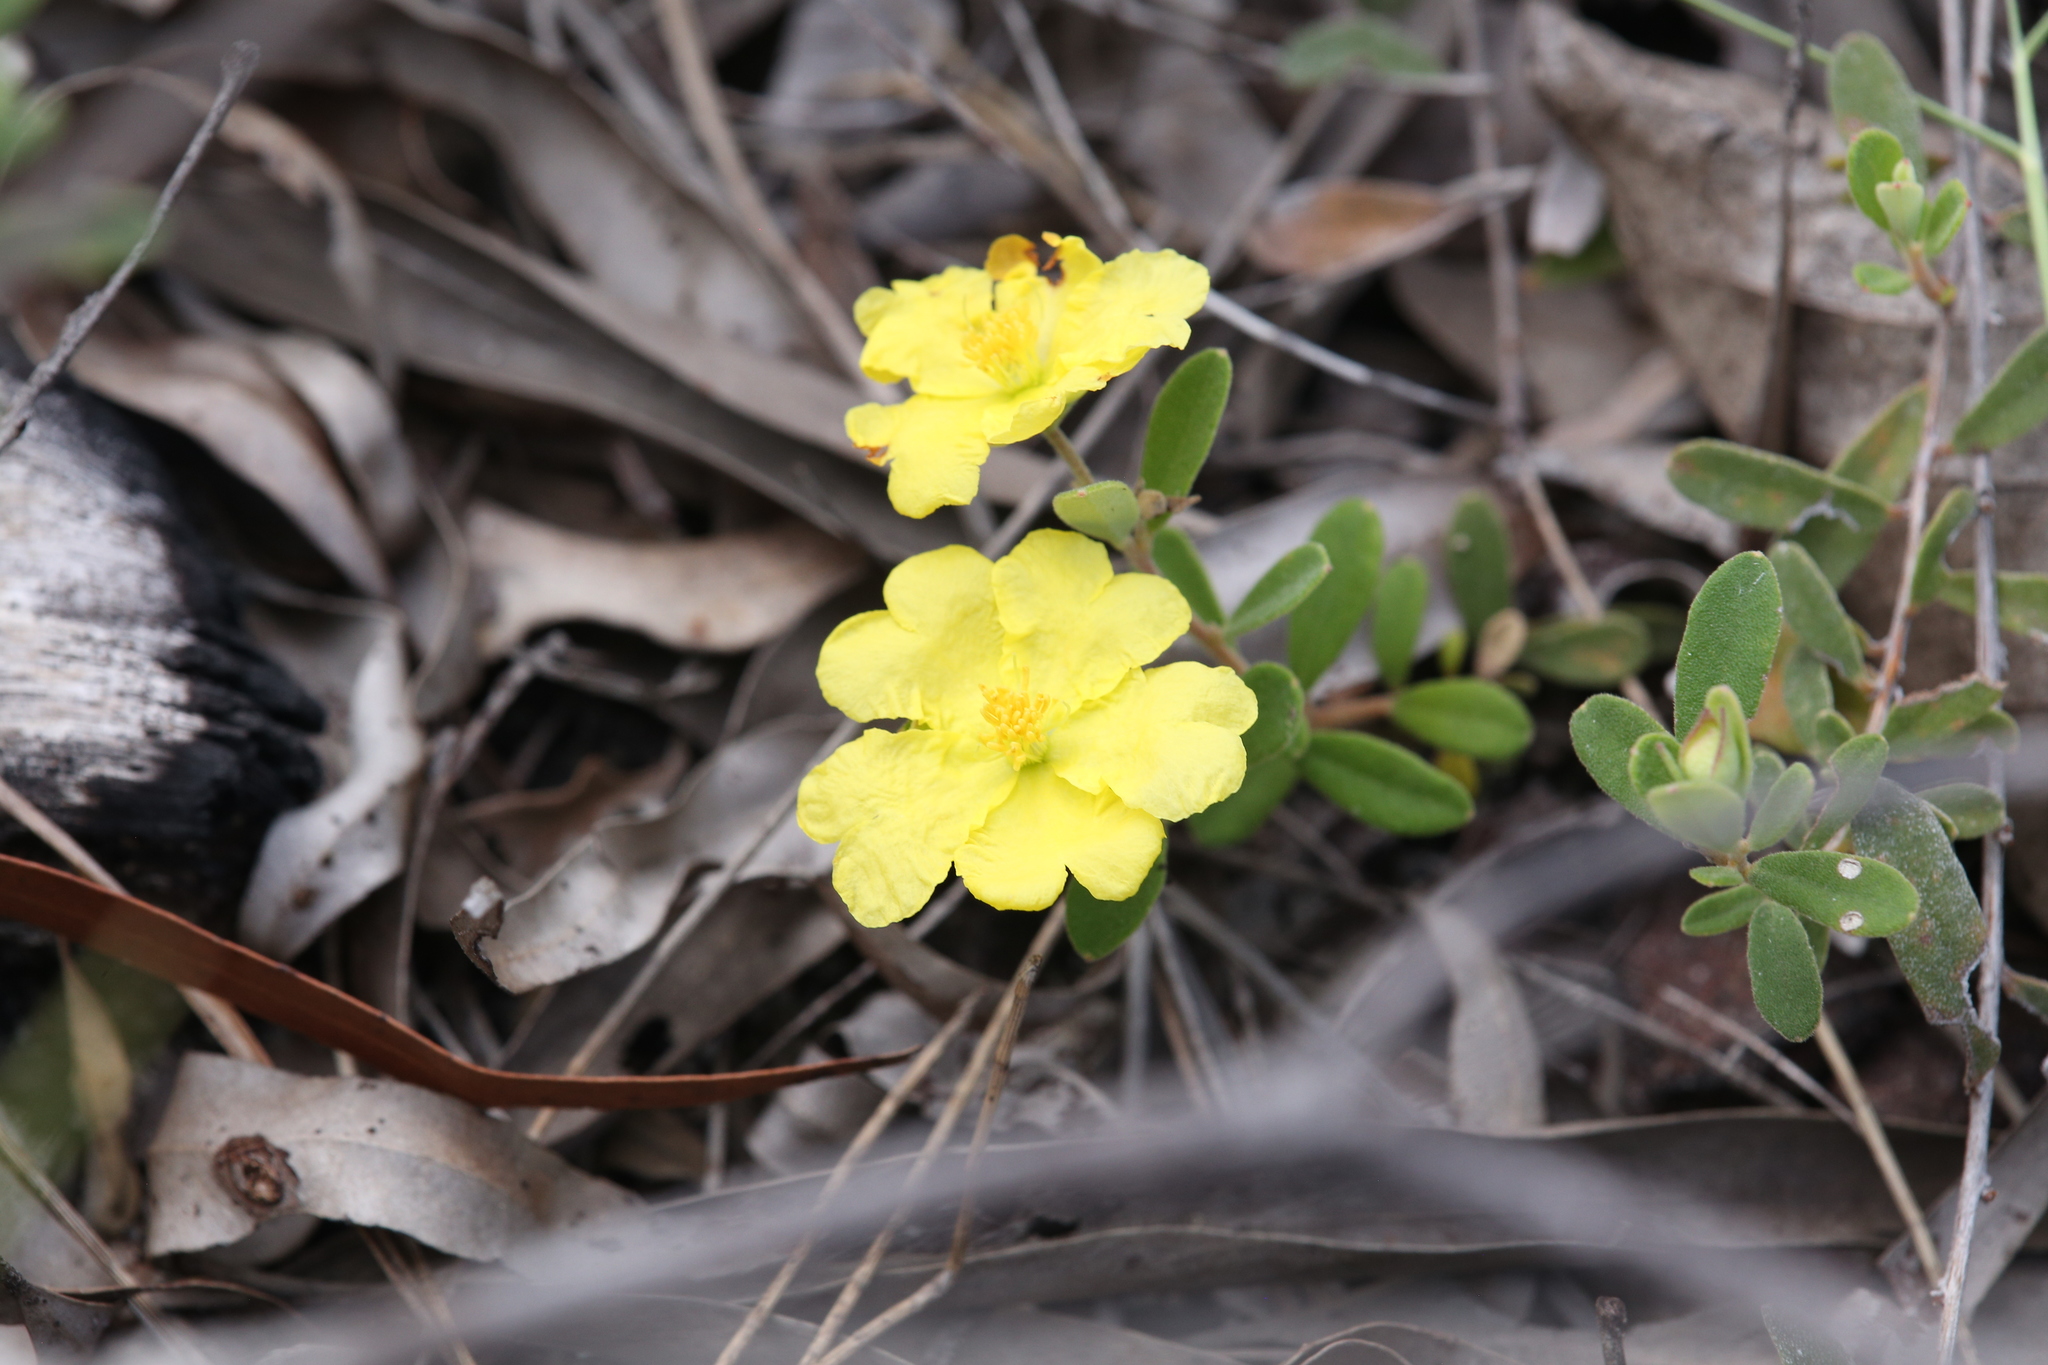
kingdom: Plantae
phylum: Tracheophyta
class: Magnoliopsida
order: Dilleniales
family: Dilleniaceae
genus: Hibbertia
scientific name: Hibbertia araneolifera
